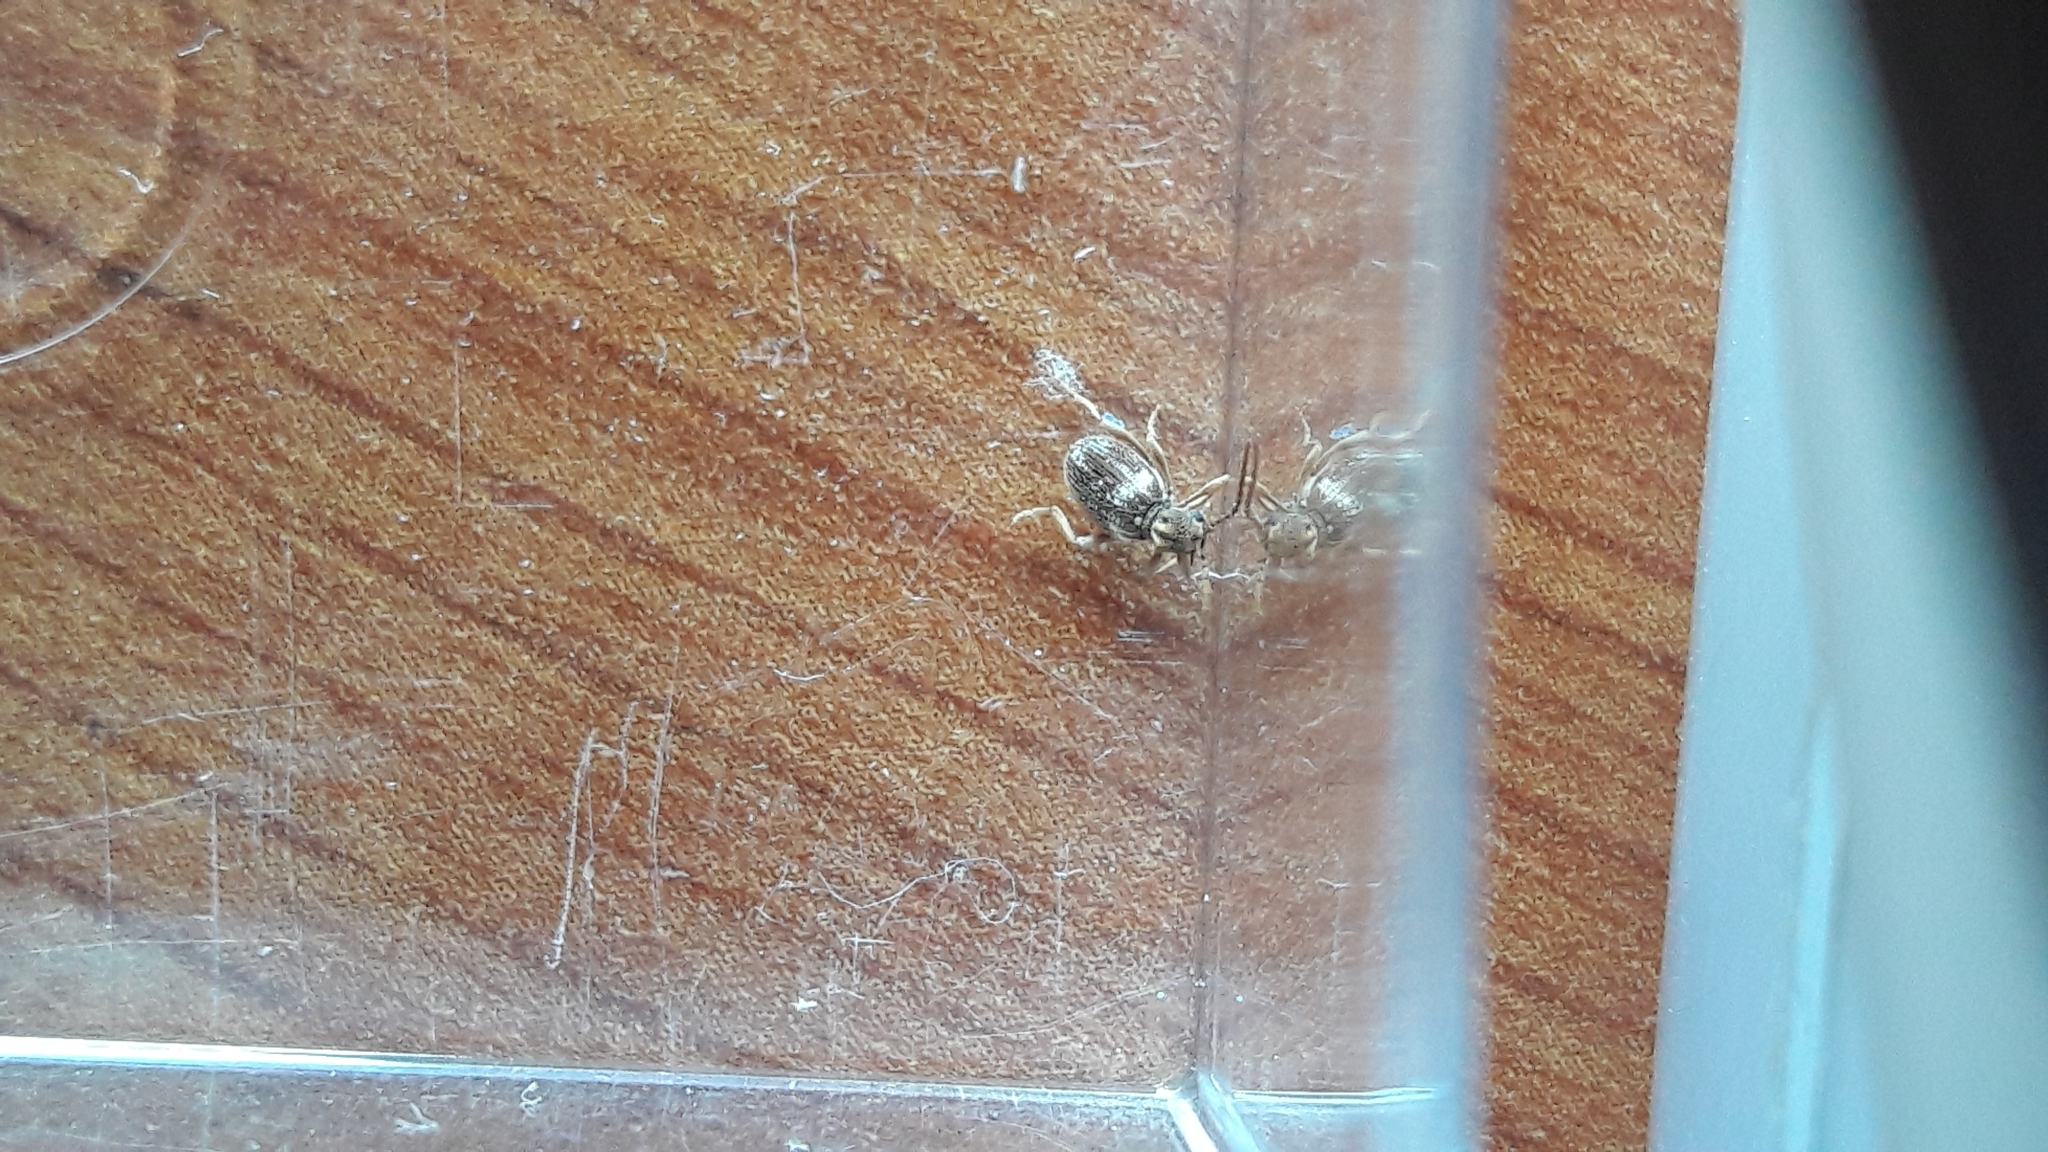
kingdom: Animalia
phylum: Arthropoda
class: Insecta
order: Coleoptera
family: Ptinidae
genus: Ptinus
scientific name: Ptinus fur
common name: White-marked spider beetle
